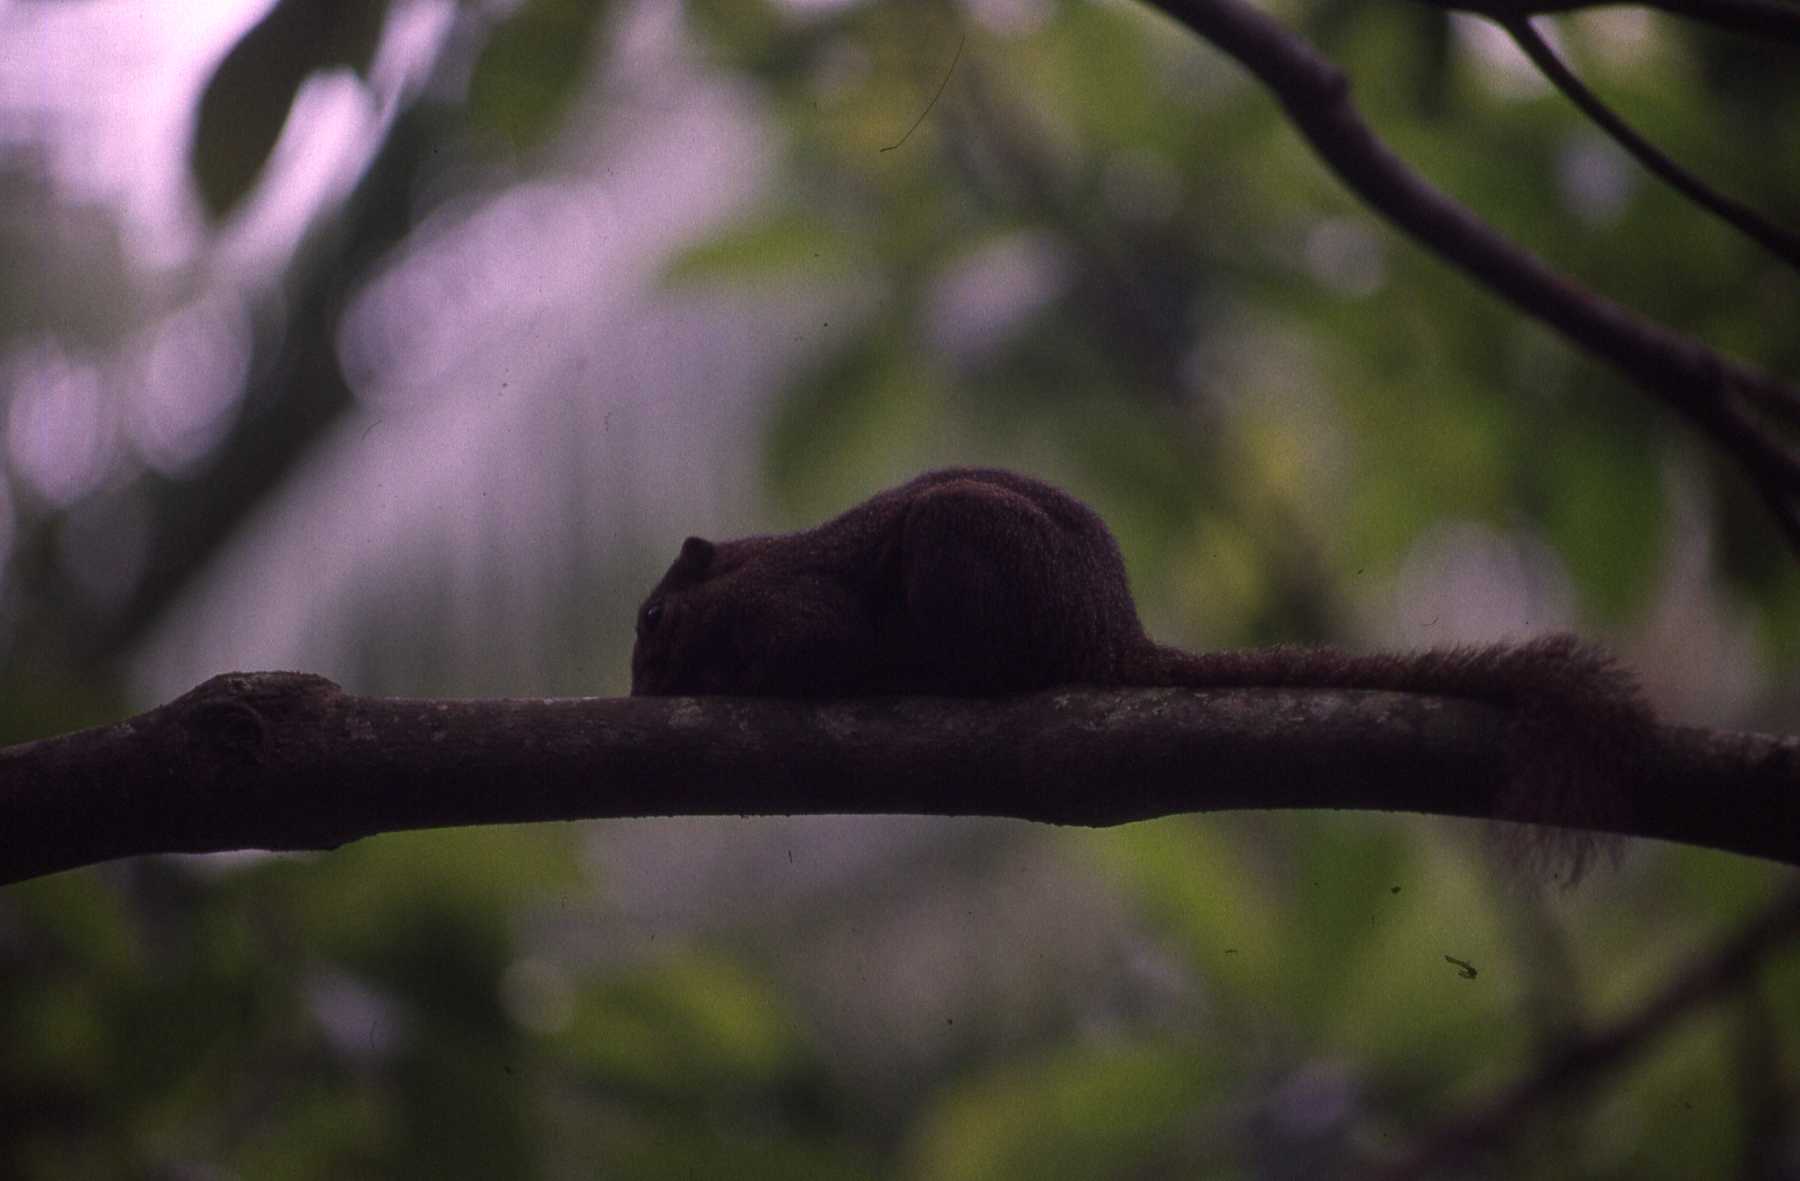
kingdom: Animalia
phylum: Chordata
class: Mammalia
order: Rodentia
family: Sciuridae
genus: Callosciurus
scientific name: Callosciurus notatus
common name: Plantain squirrel
